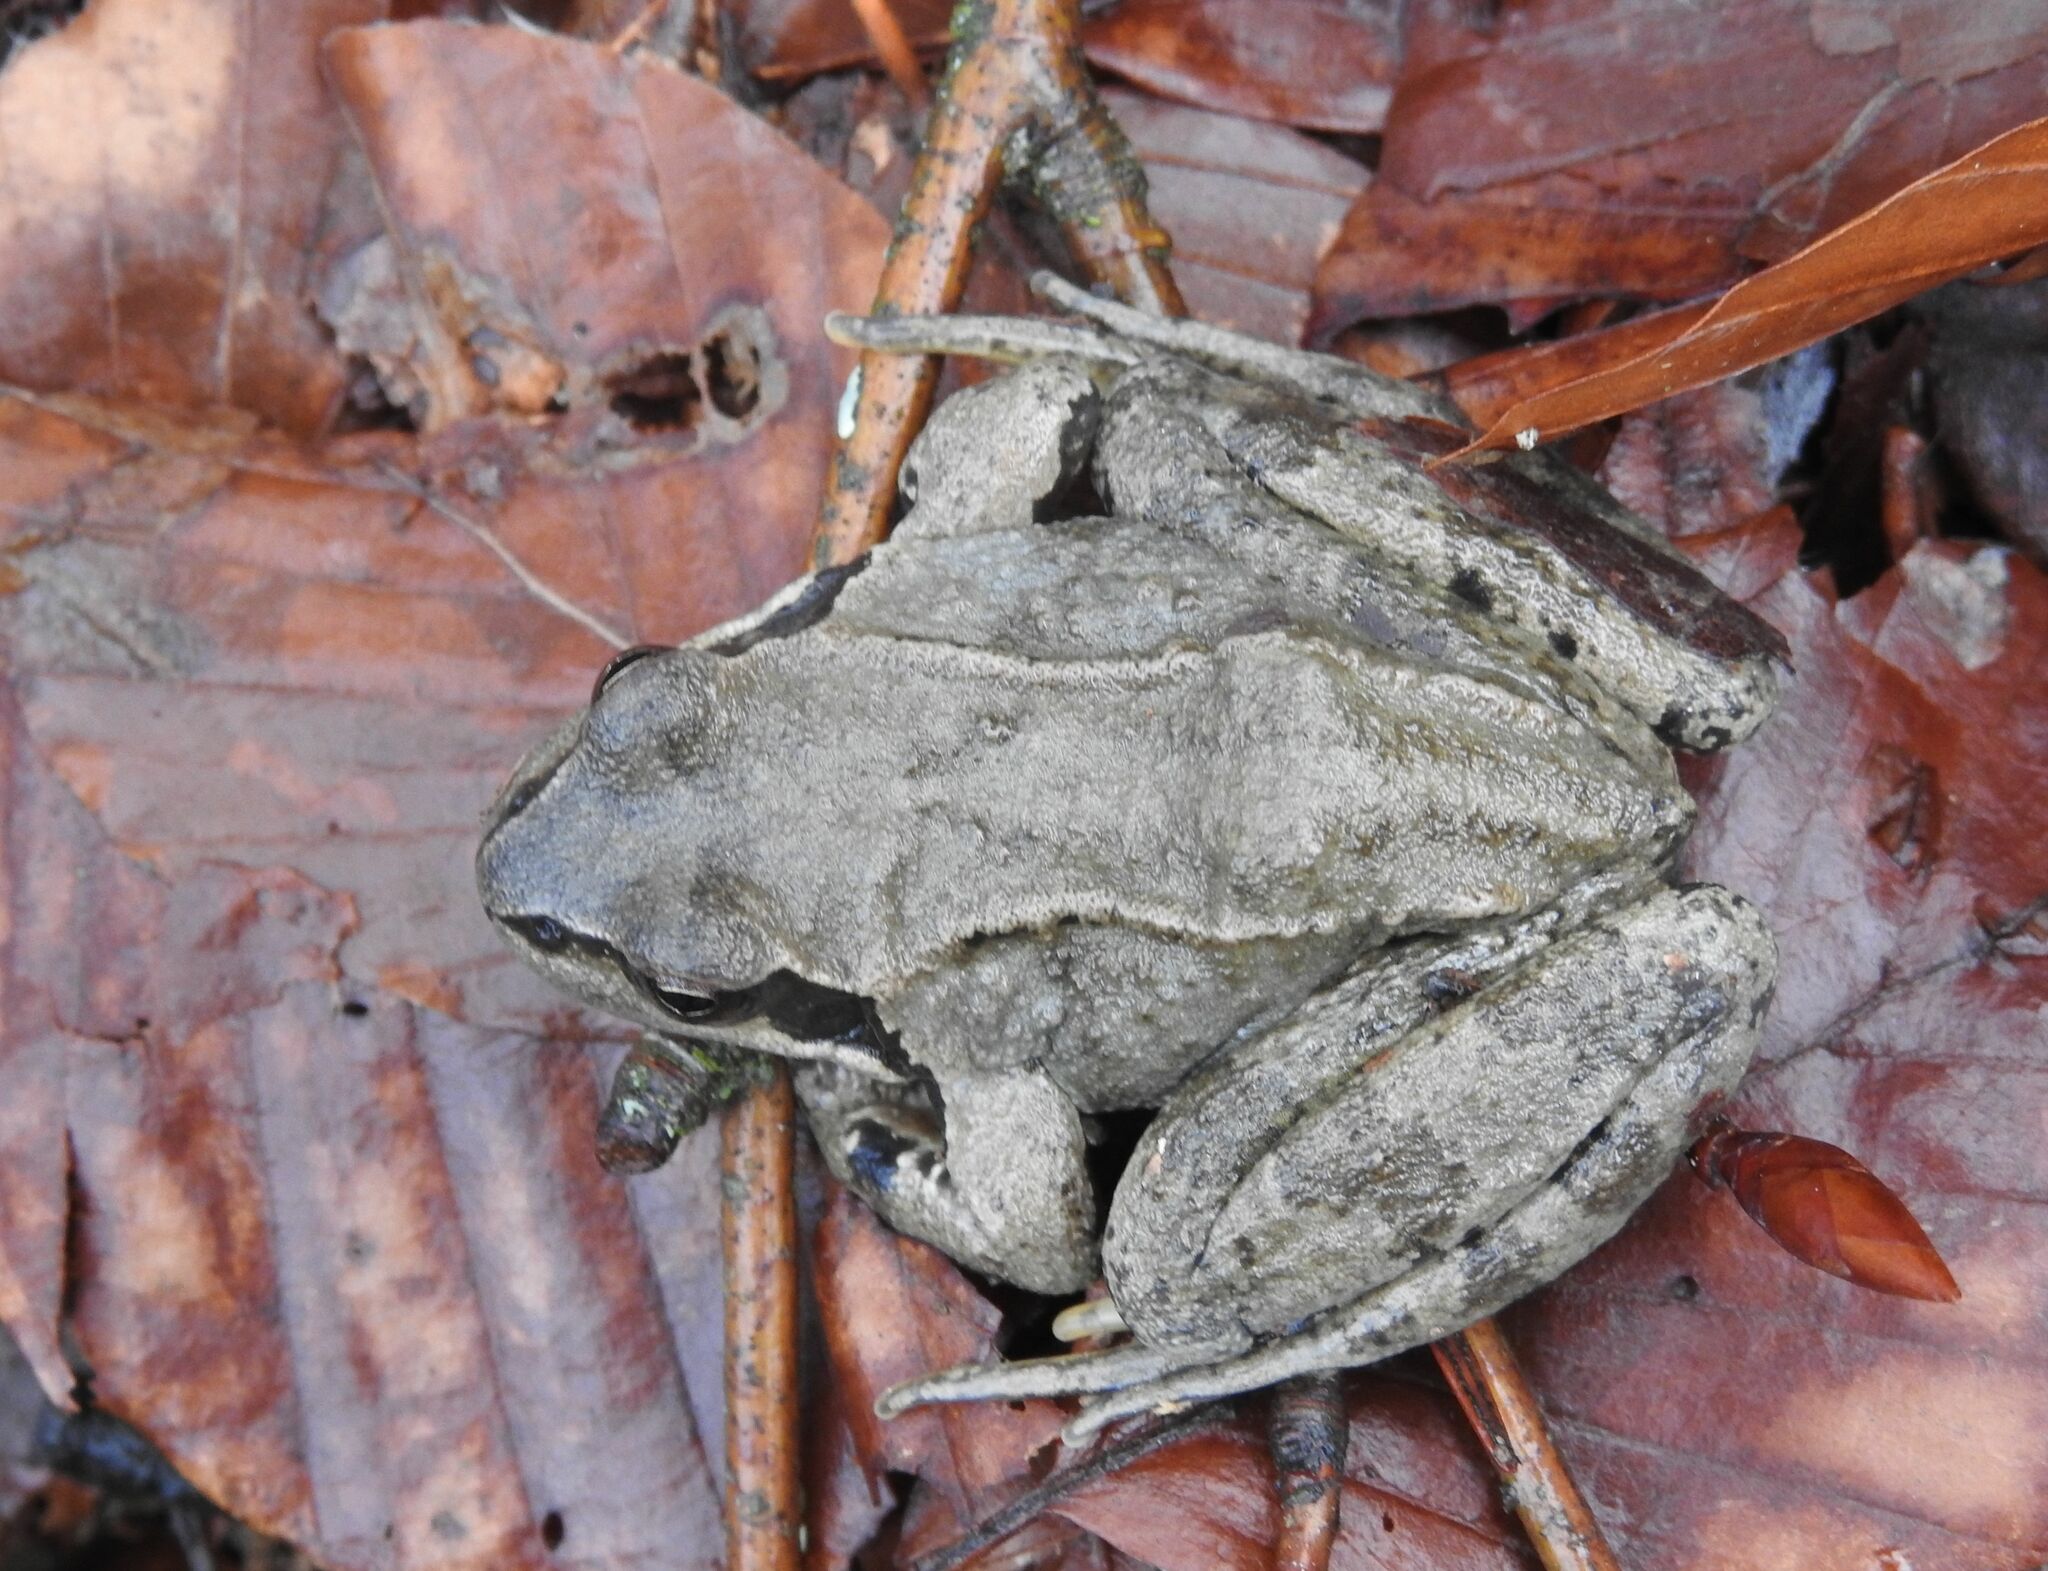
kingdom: Animalia
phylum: Chordata
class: Amphibia
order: Anura
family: Ranidae
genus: Rana
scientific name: Rana temporaria
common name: Common frog
